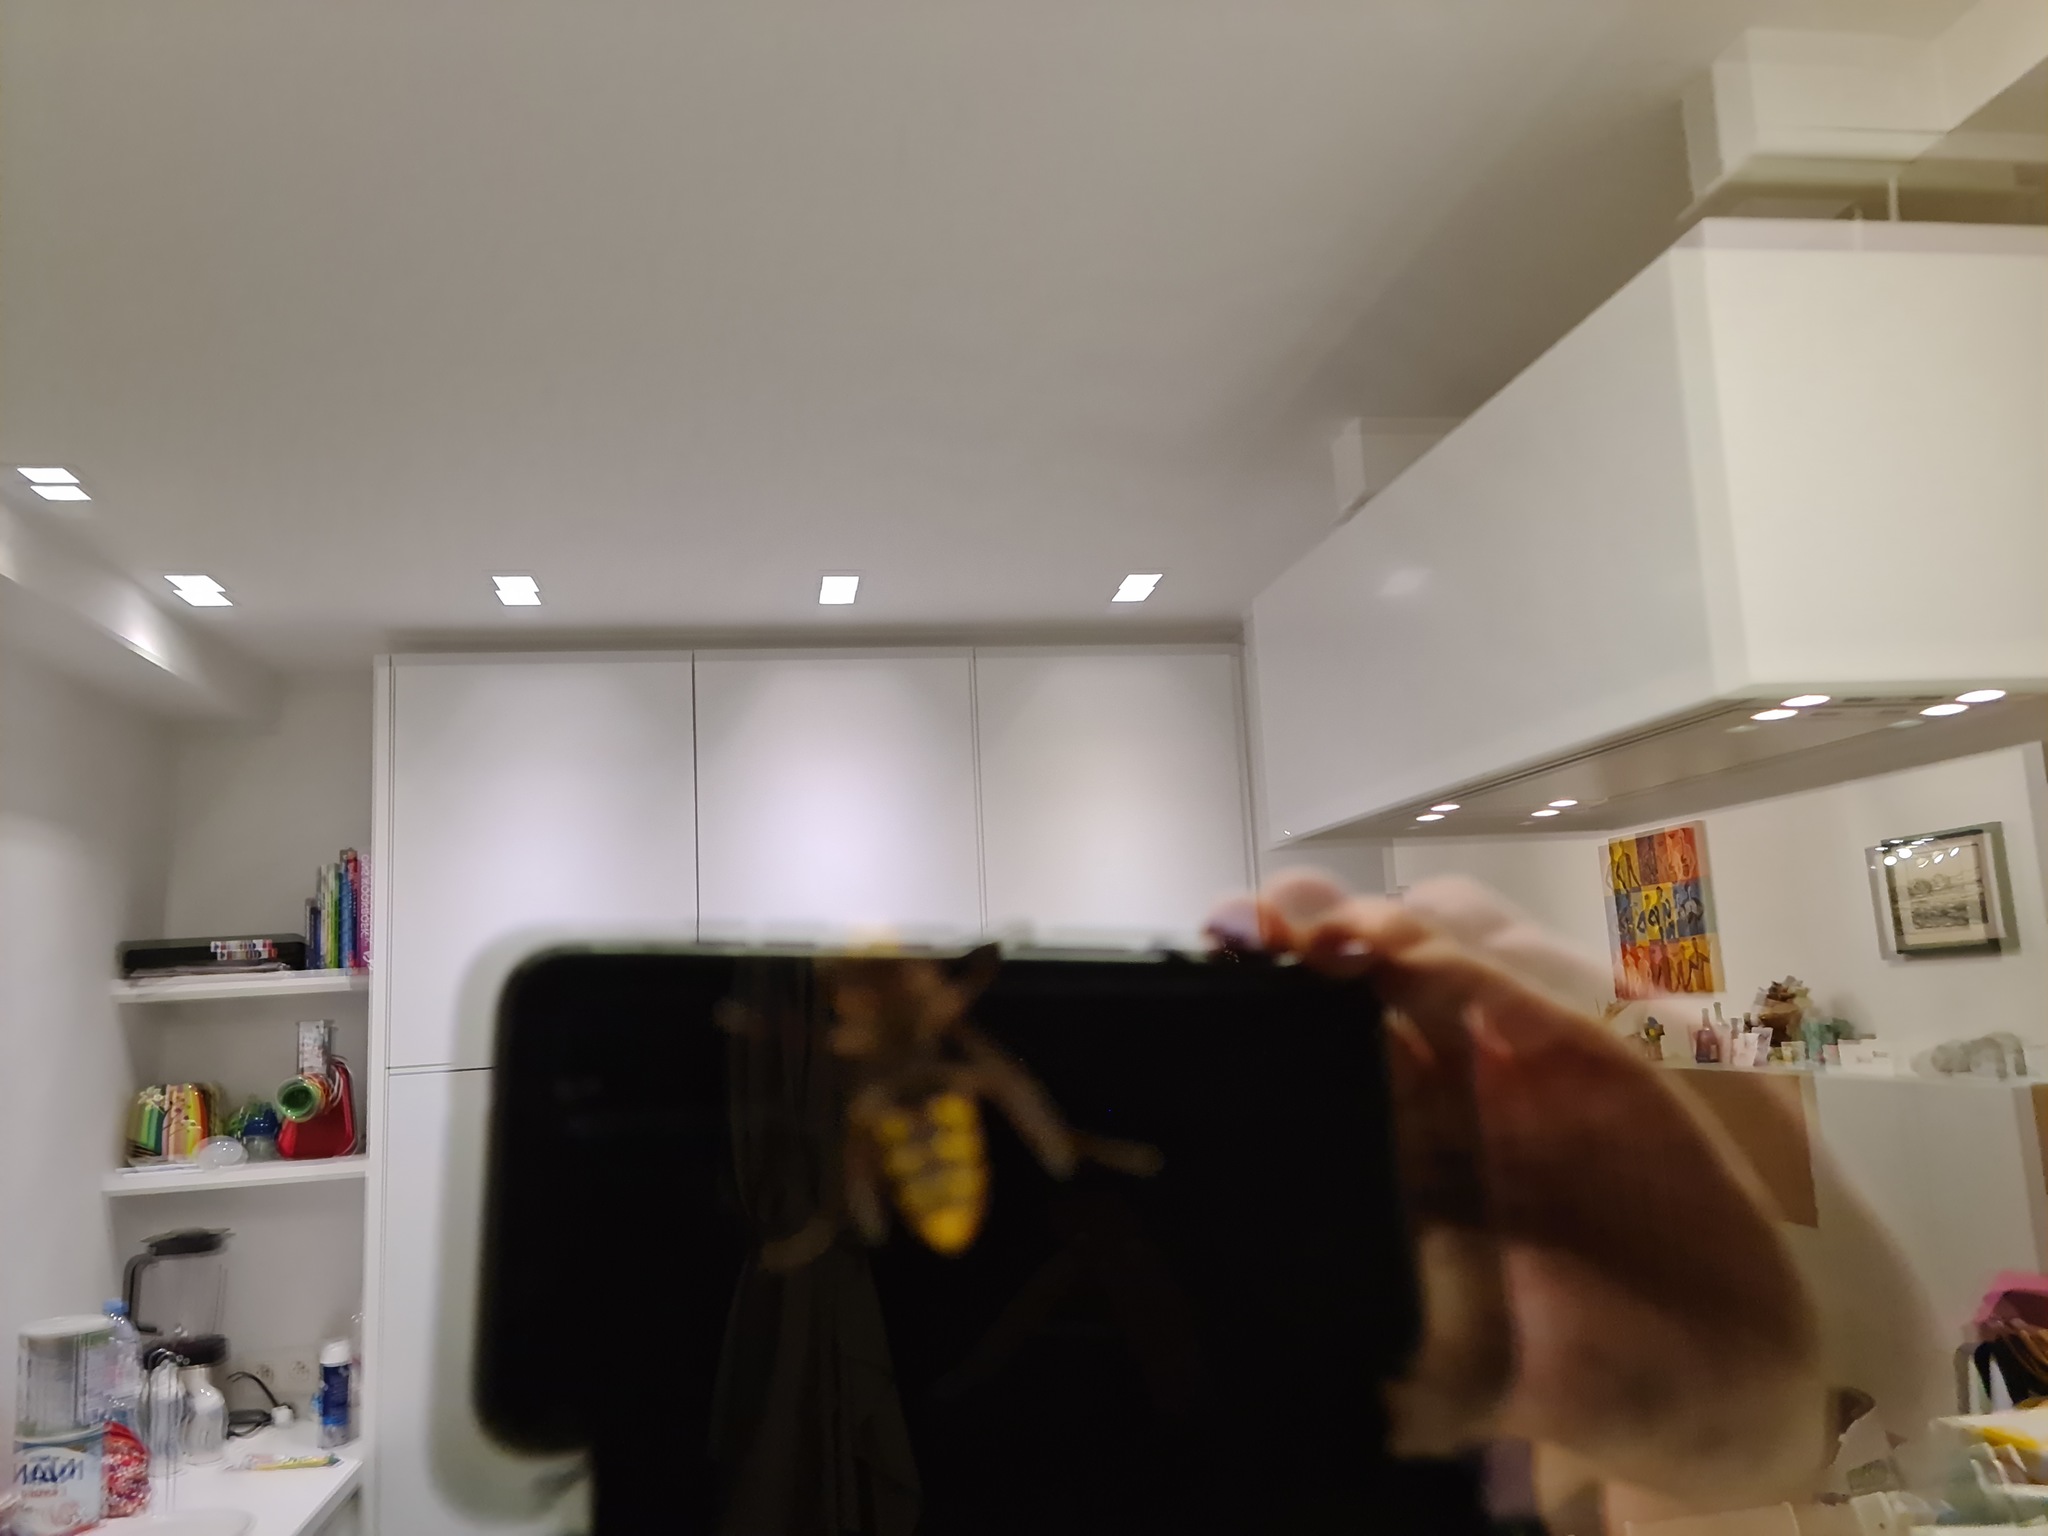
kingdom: Animalia
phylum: Arthropoda
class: Insecta
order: Hymenoptera
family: Vespidae
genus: Vespa
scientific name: Vespa crabro
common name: Hornet
